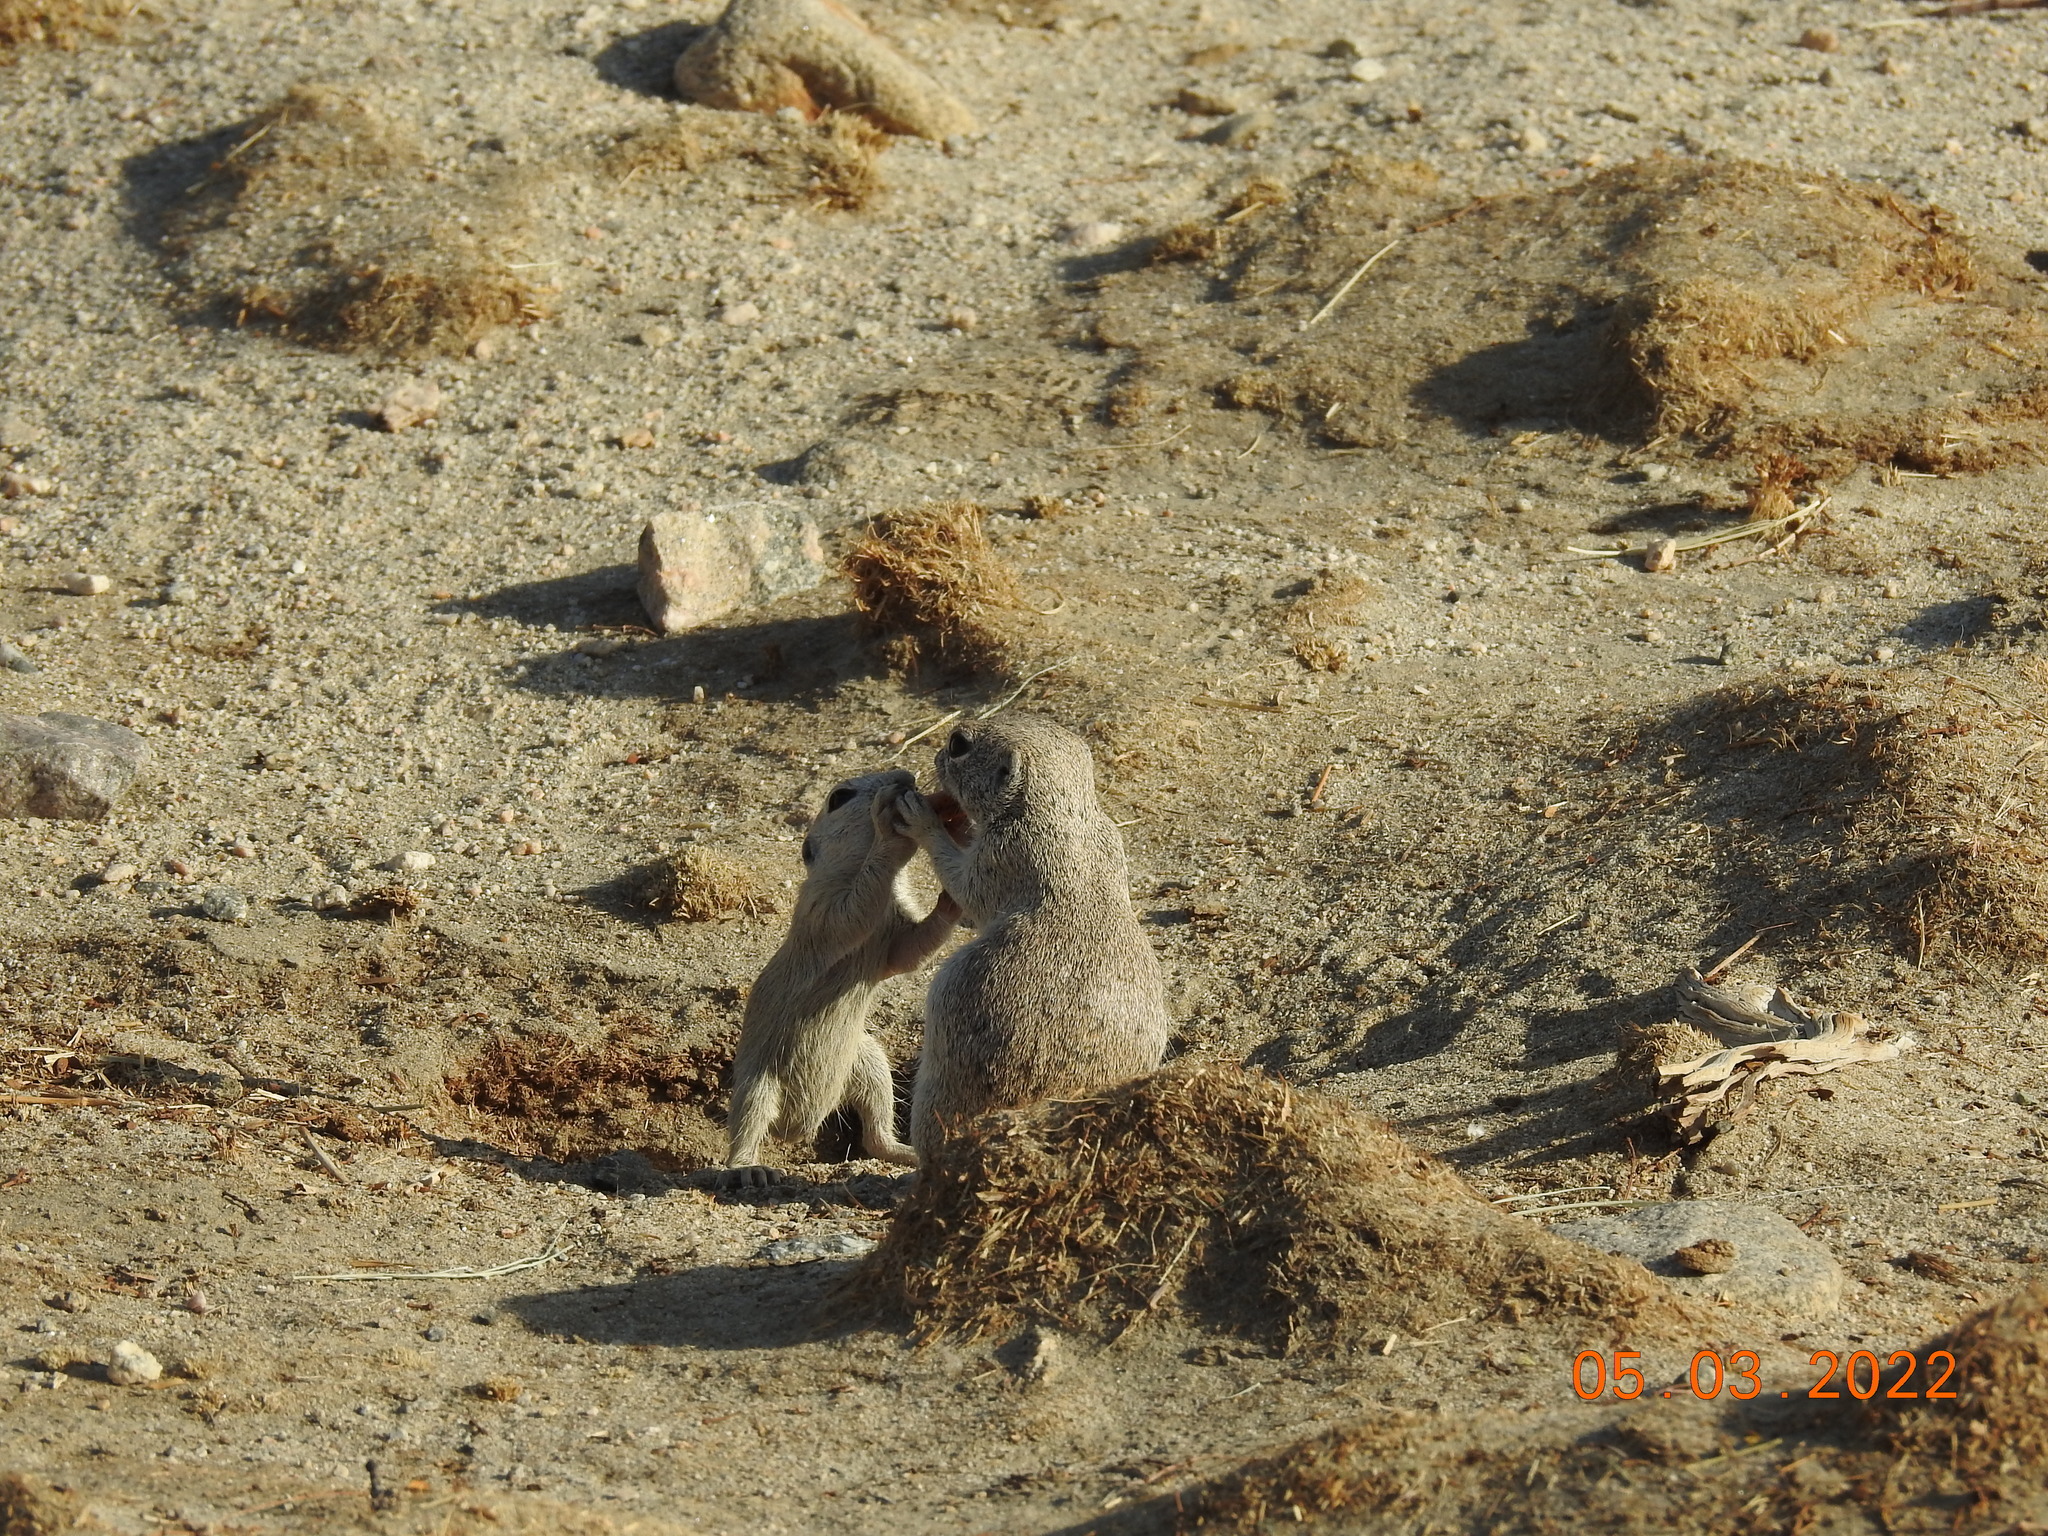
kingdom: Animalia
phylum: Chordata
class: Mammalia
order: Rodentia
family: Sciuridae
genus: Xerospermophilus
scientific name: Xerospermophilus tereticaudus
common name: Round-tailed ground squirrel
